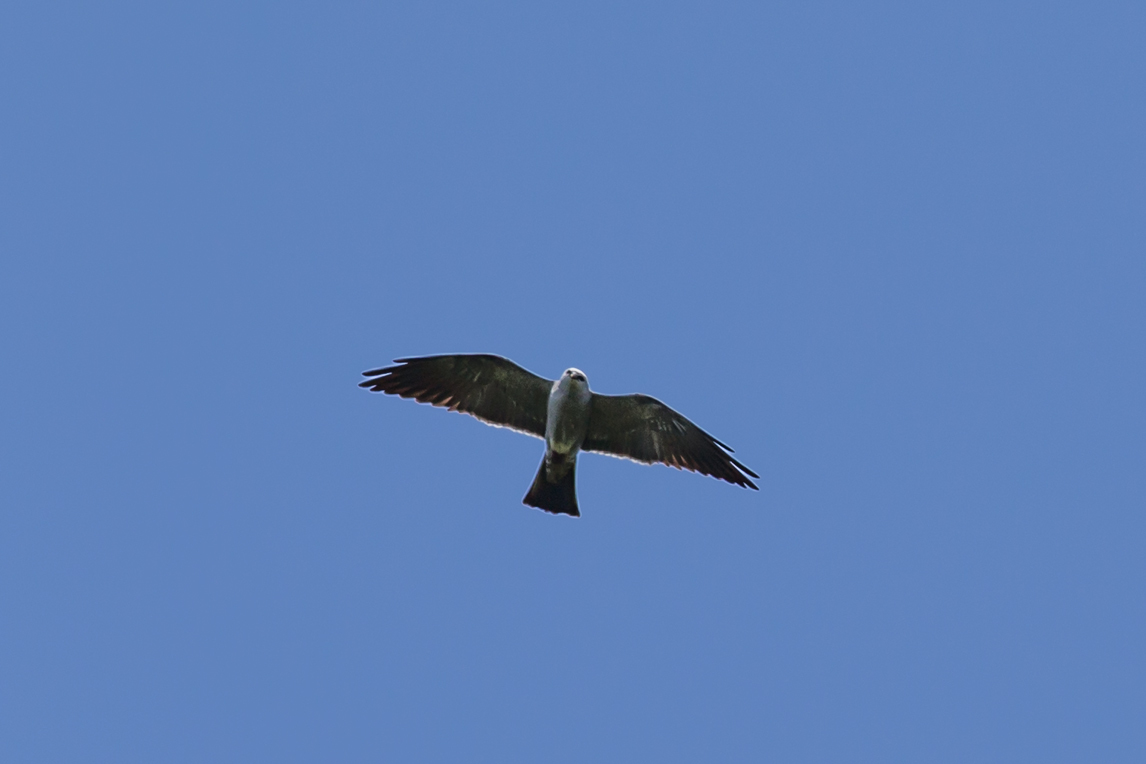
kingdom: Animalia
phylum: Chordata
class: Aves
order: Accipitriformes
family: Accipitridae
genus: Ictinia
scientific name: Ictinia mississippiensis
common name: Mississippi kite
